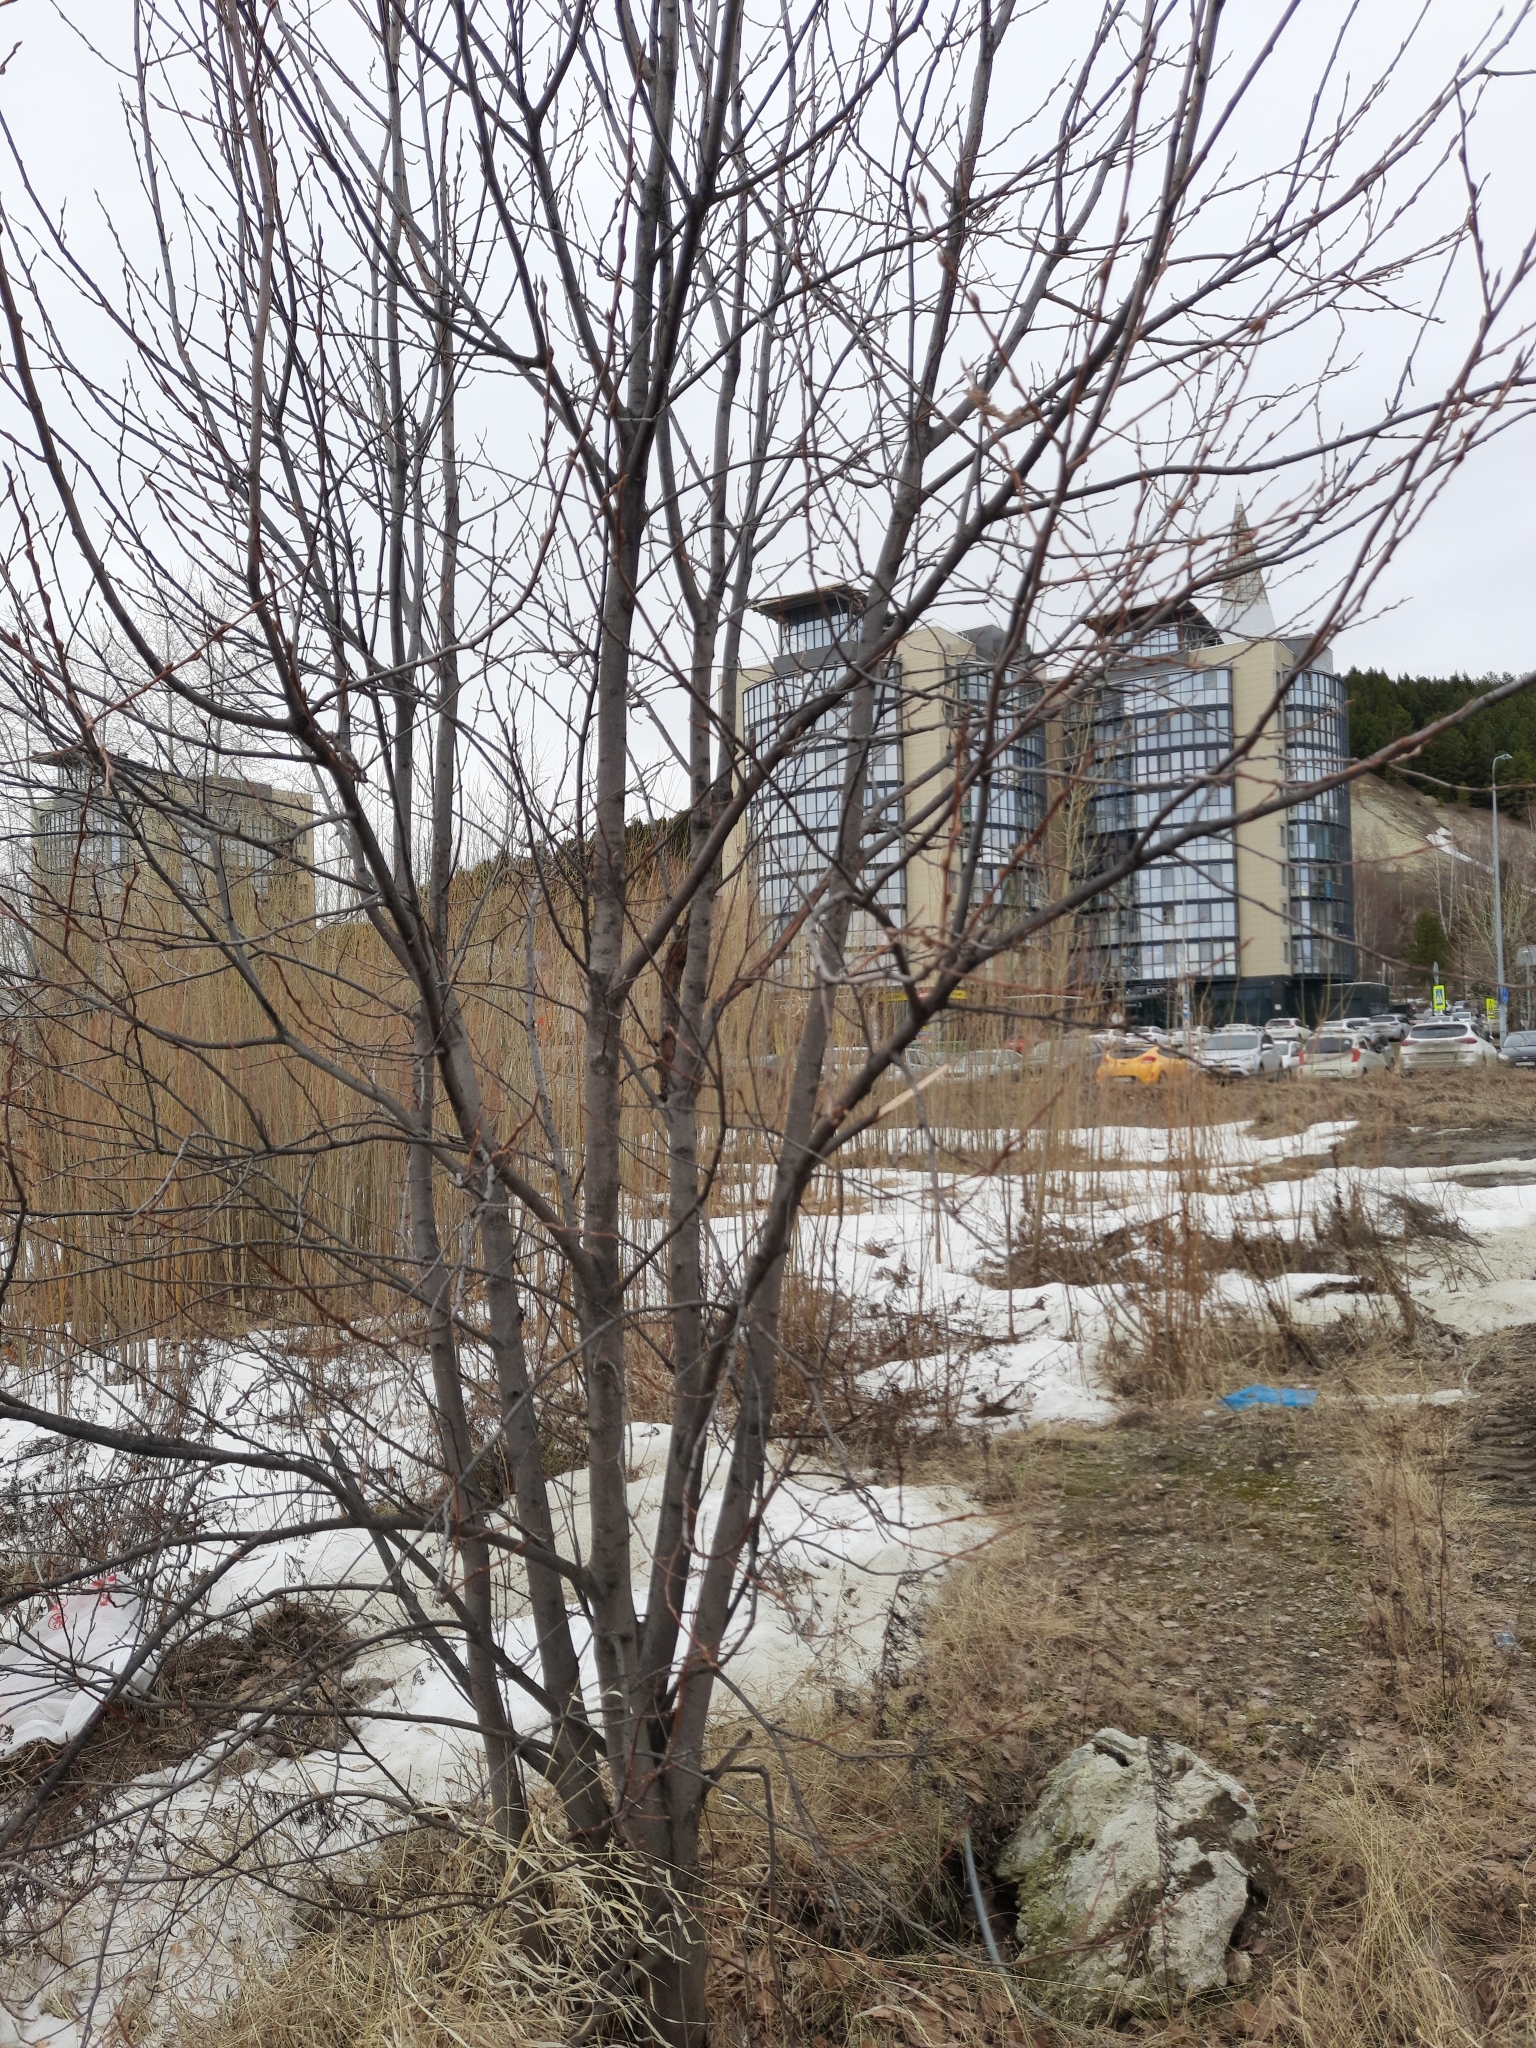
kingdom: Plantae
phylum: Tracheophyta
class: Magnoliopsida
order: Rosales
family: Rosaceae
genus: Prunus
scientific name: Prunus padus
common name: Bird cherry
